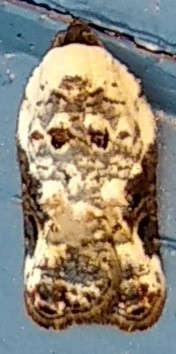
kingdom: Animalia
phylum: Arthropoda
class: Insecta
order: Lepidoptera
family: Tortricidae
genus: Acleris
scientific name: Acleris nivisellana
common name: Snowy-shouldered acleris moth
